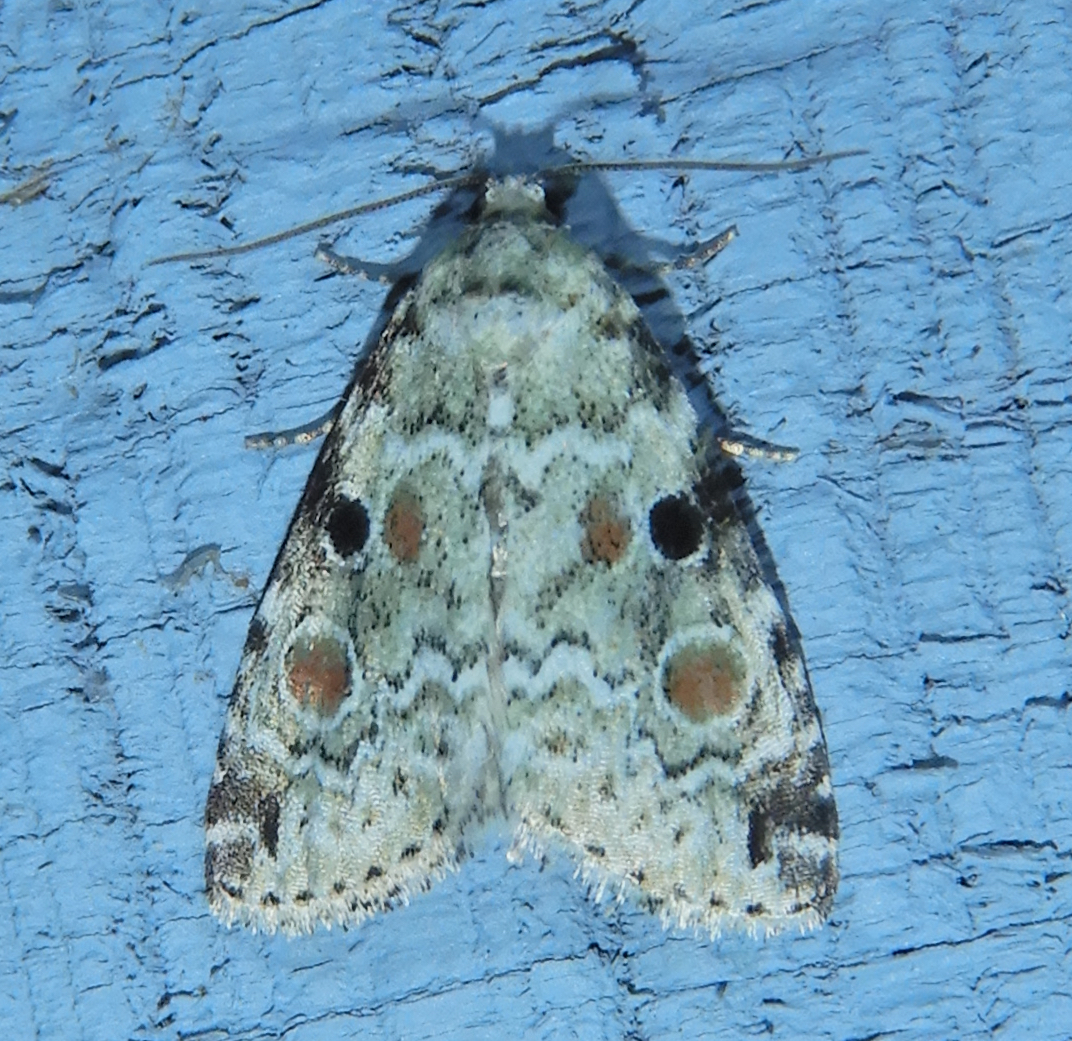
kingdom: Animalia
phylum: Arthropoda
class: Insecta
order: Lepidoptera
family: Noctuidae
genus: Maliattha
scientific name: Maliattha concinnimacula
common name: Red-spotted glyph
